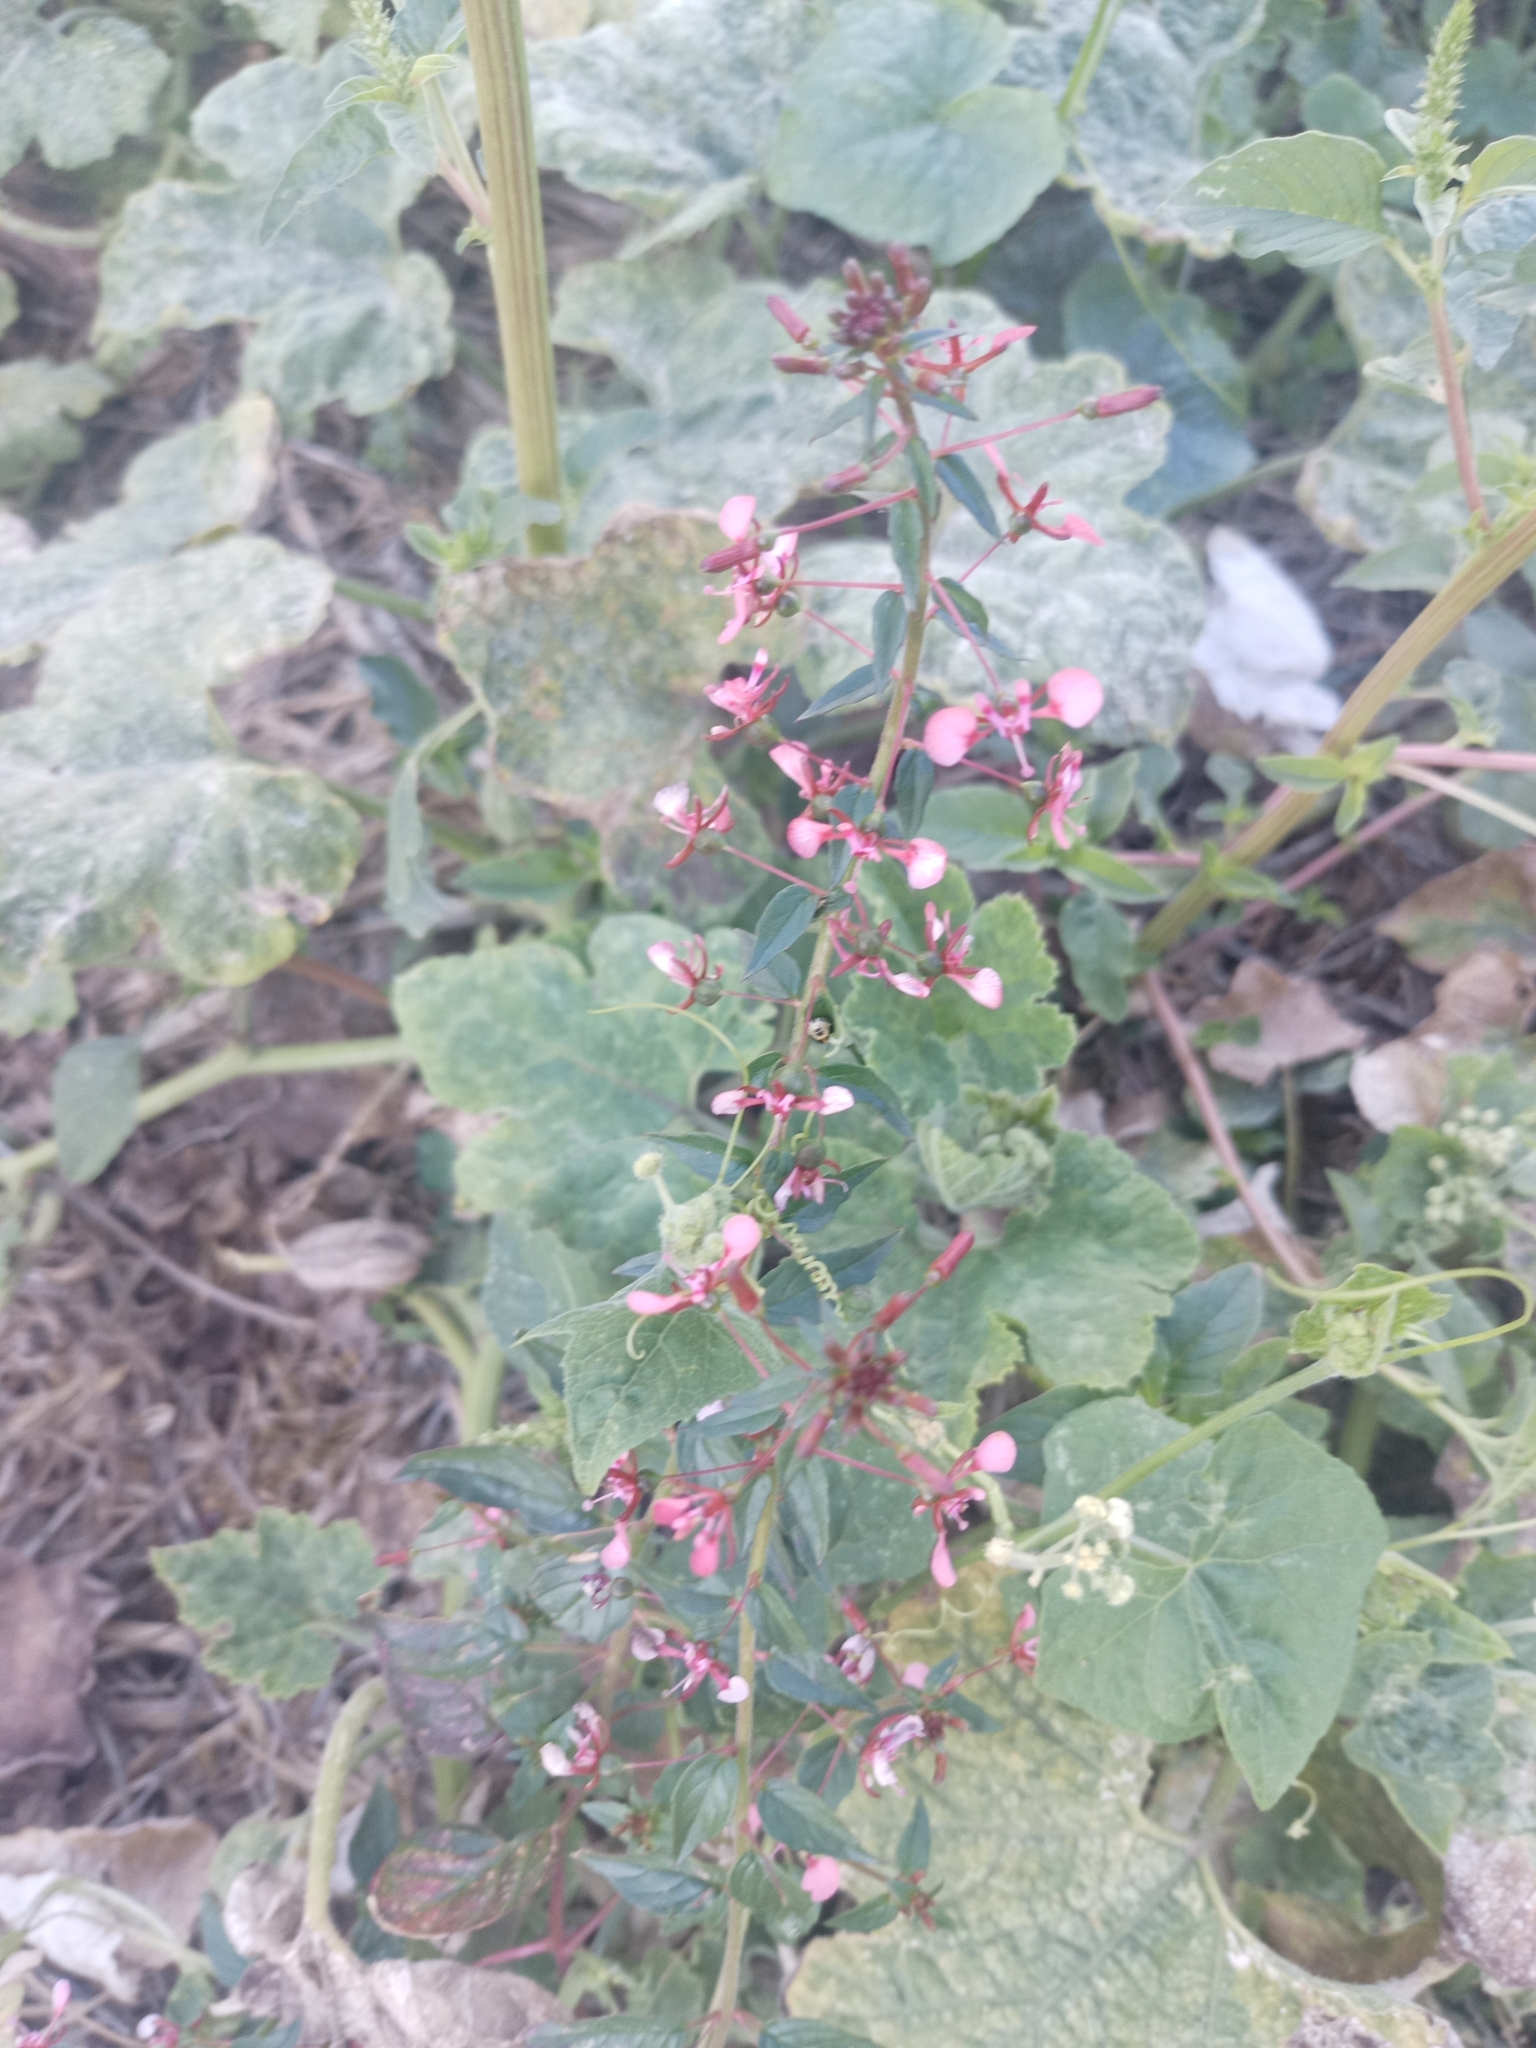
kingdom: Plantae
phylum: Tracheophyta
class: Magnoliopsida
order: Myrtales
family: Onagraceae
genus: Lopezia
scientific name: Lopezia racemosa
